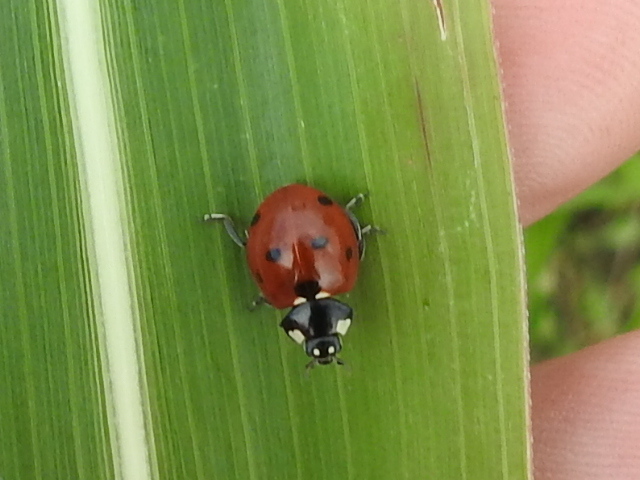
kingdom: Animalia
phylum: Arthropoda
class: Insecta
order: Coleoptera
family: Coccinellidae
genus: Coccinella
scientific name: Coccinella septempunctata
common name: Sevenspotted lady beetle
